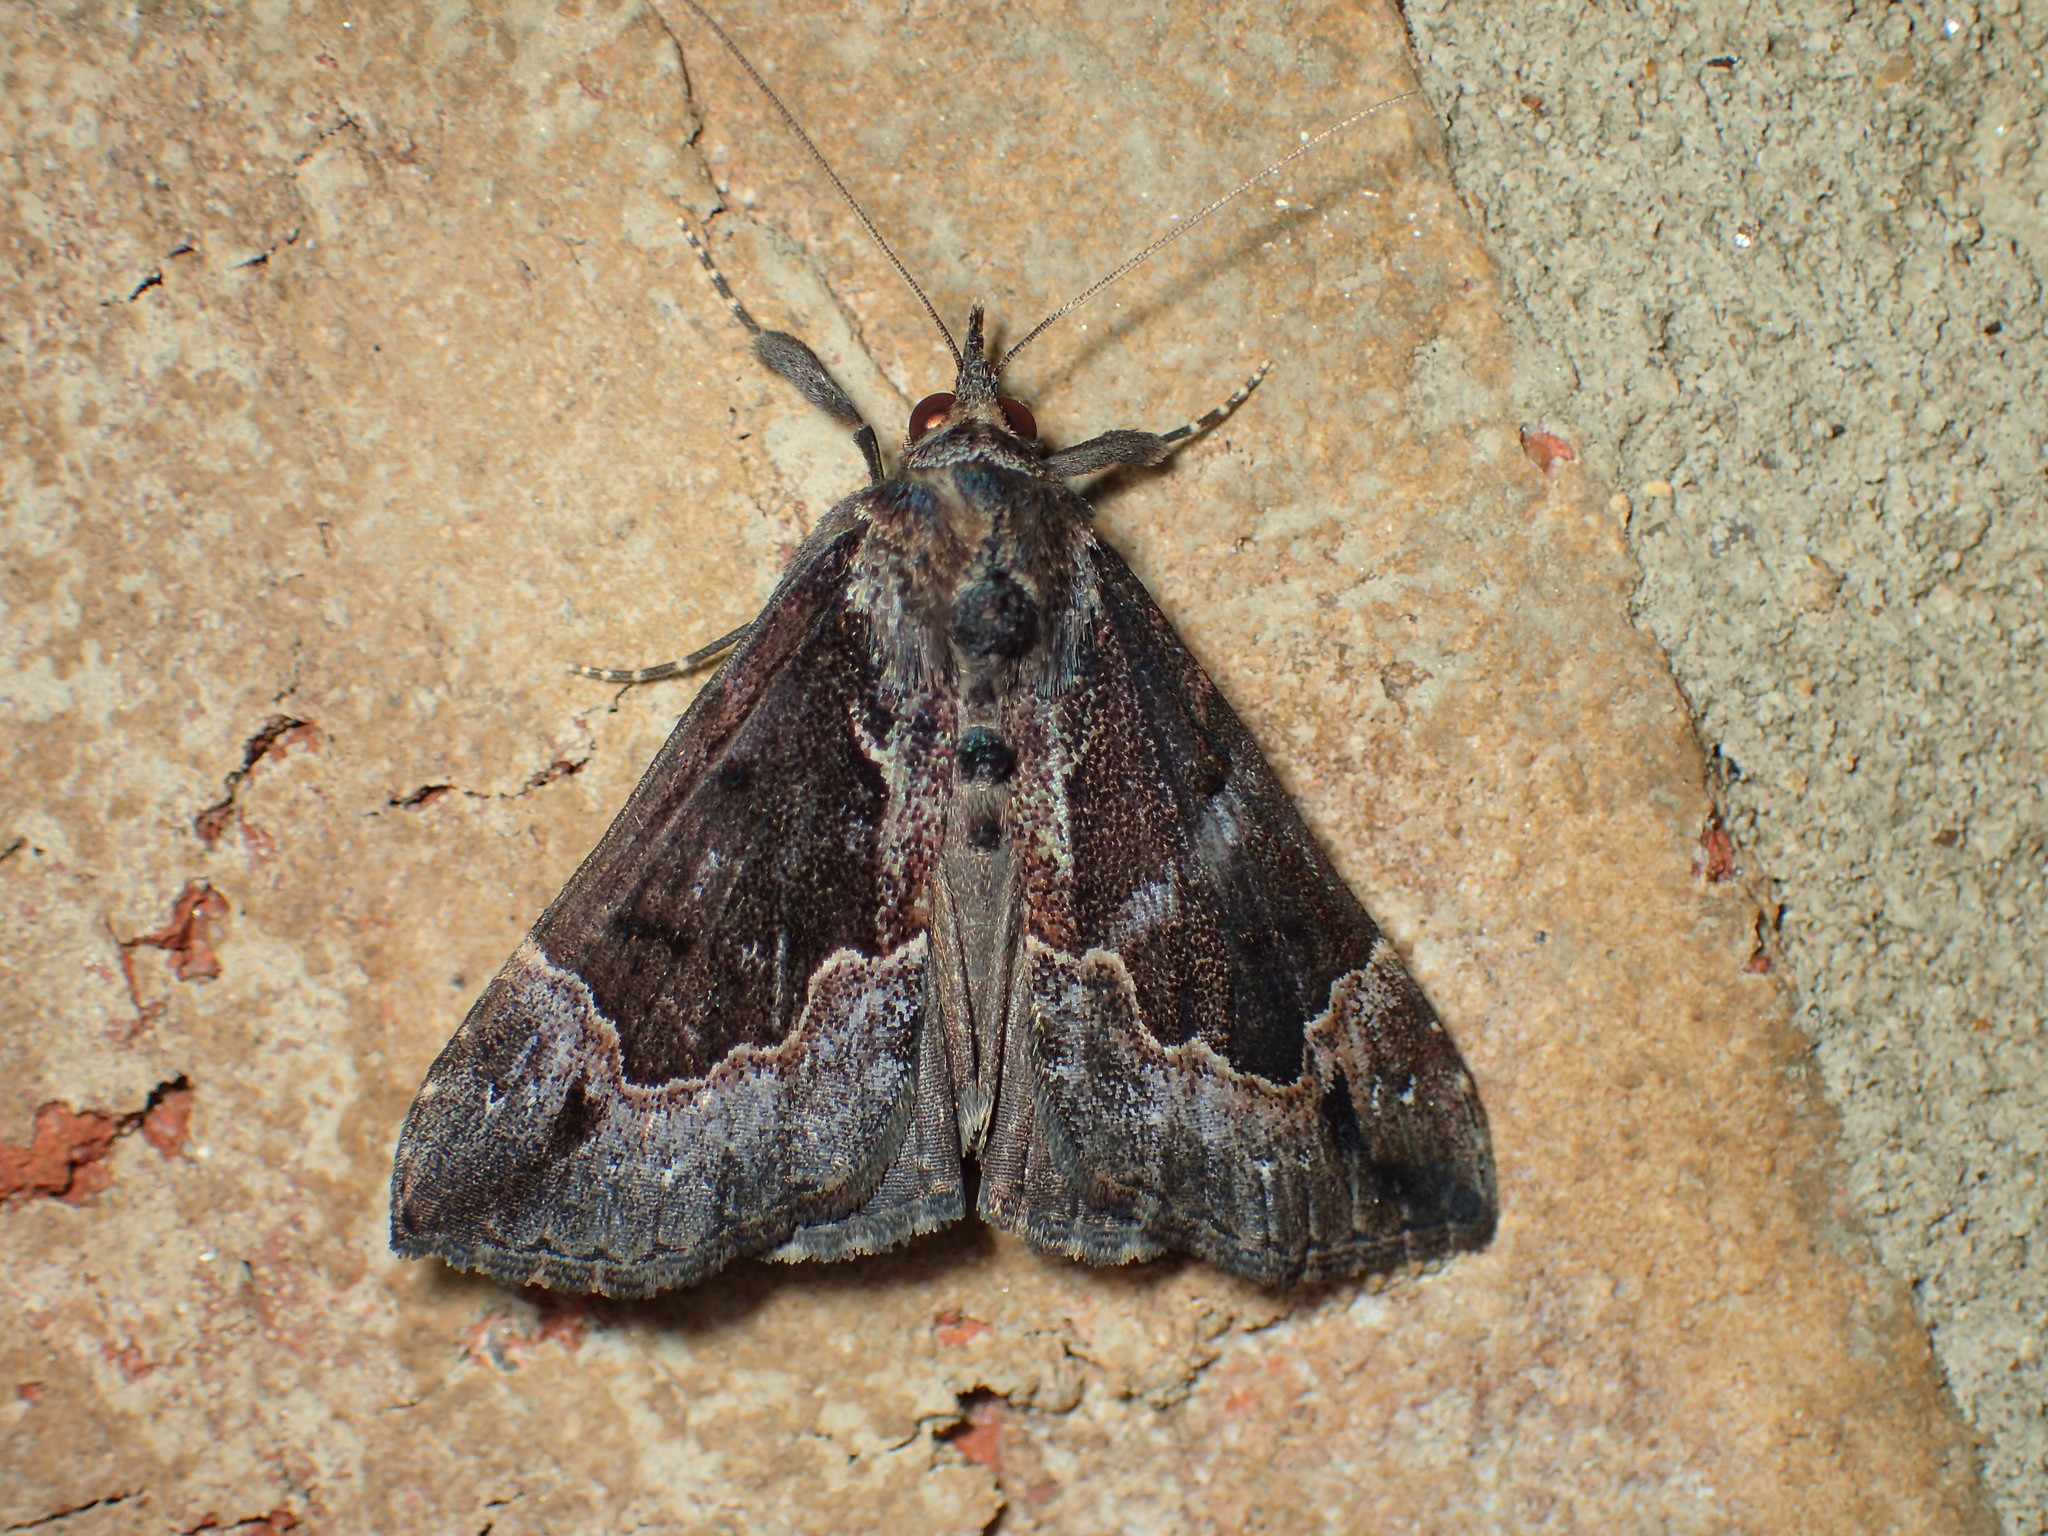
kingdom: Animalia
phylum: Arthropoda
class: Insecta
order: Lepidoptera
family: Erebidae
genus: Hypena
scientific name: Hypena palparia
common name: Mottled bomolocha moth
